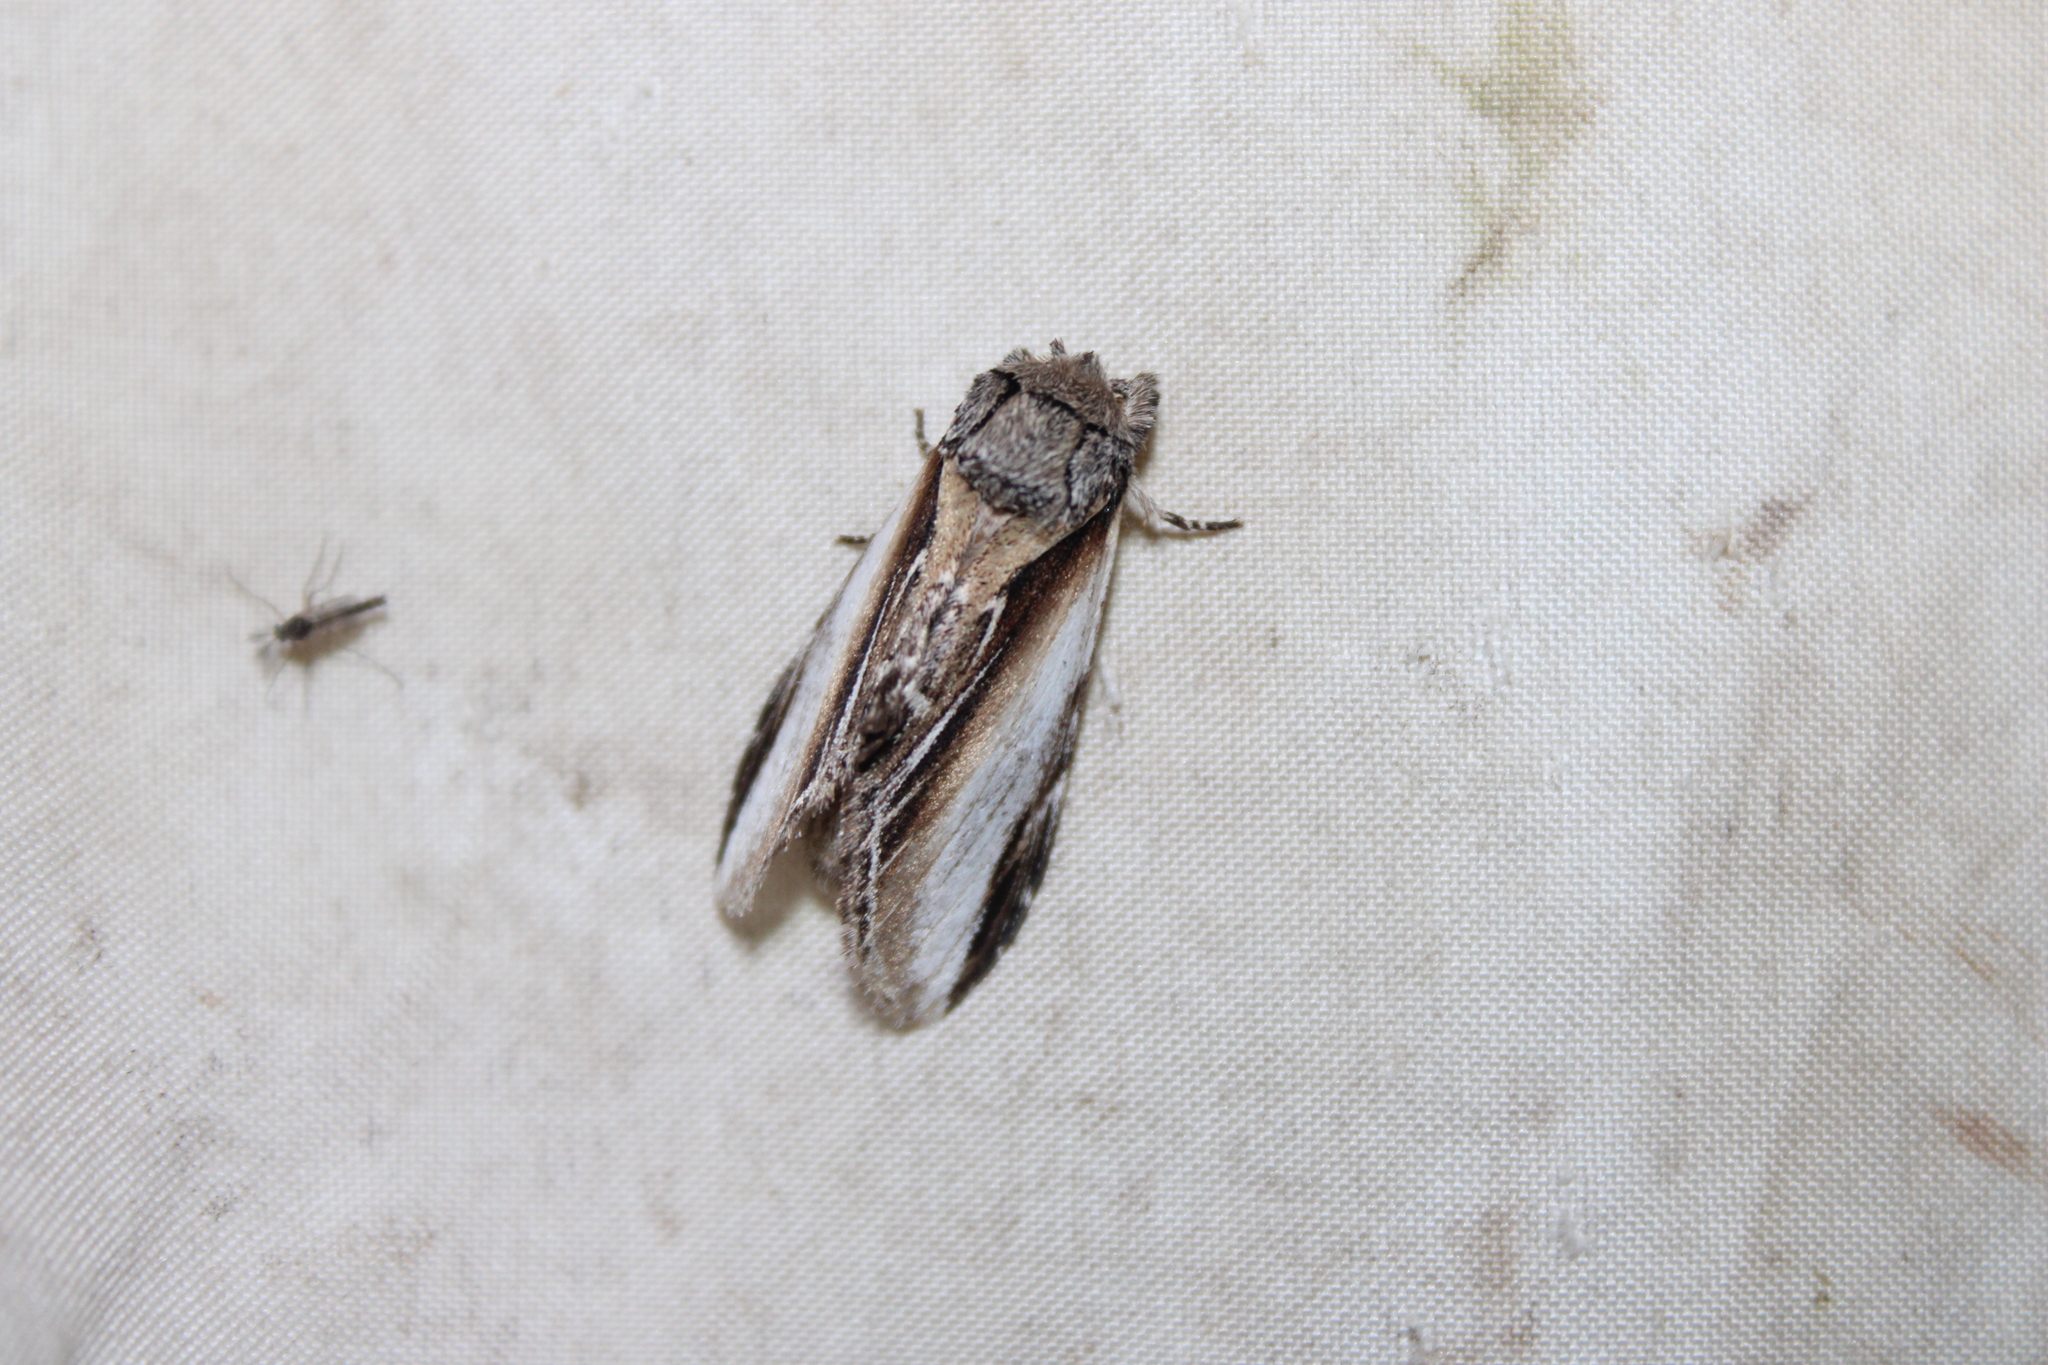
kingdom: Animalia
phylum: Arthropoda
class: Insecta
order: Lepidoptera
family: Notodontidae
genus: Pheosia
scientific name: Pheosia rimosa
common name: Black-rimmed prominent
